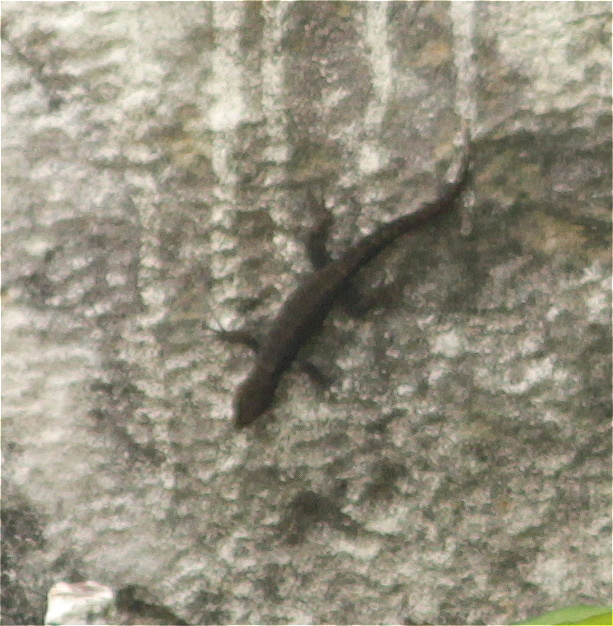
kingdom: Animalia
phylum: Chordata
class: Squamata
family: Sphaerodactylidae
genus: Gonatodes
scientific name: Gonatodes albogularis
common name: Yellow-headed gecko
